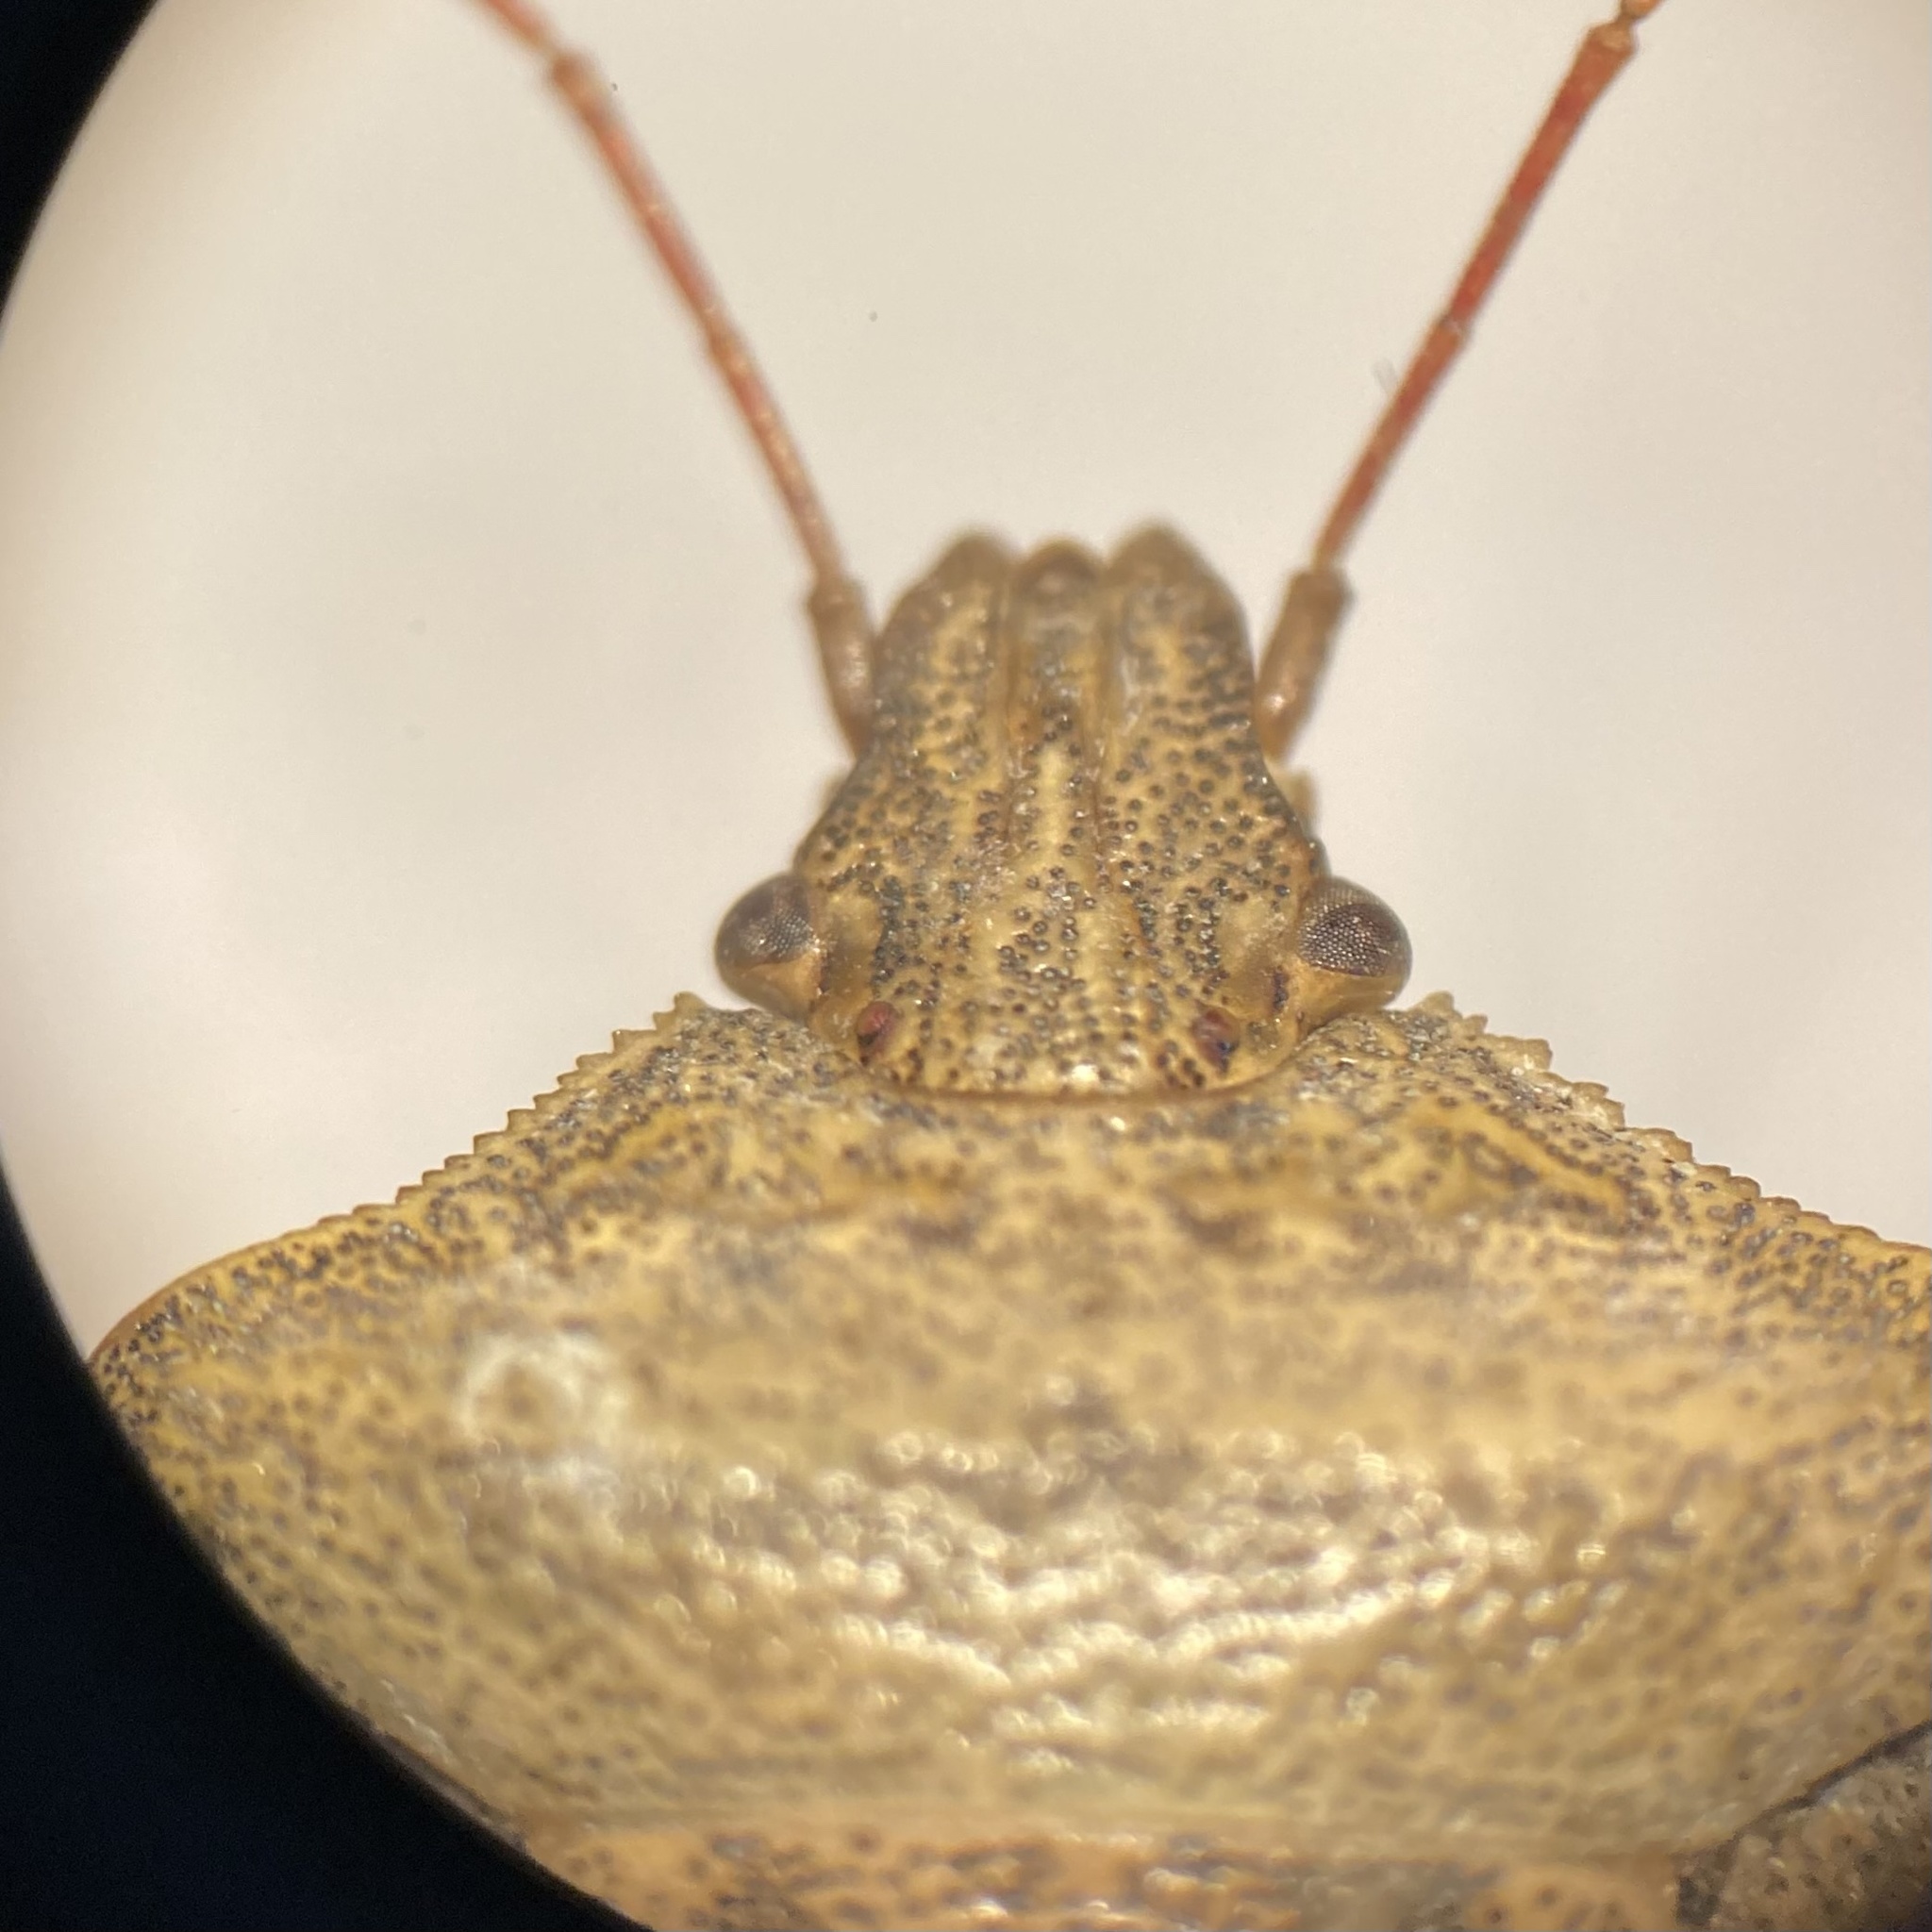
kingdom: Animalia
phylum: Arthropoda
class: Insecta
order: Hemiptera
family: Pentatomidae
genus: Euschistus
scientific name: Euschistus servus
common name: Brown stink bug
